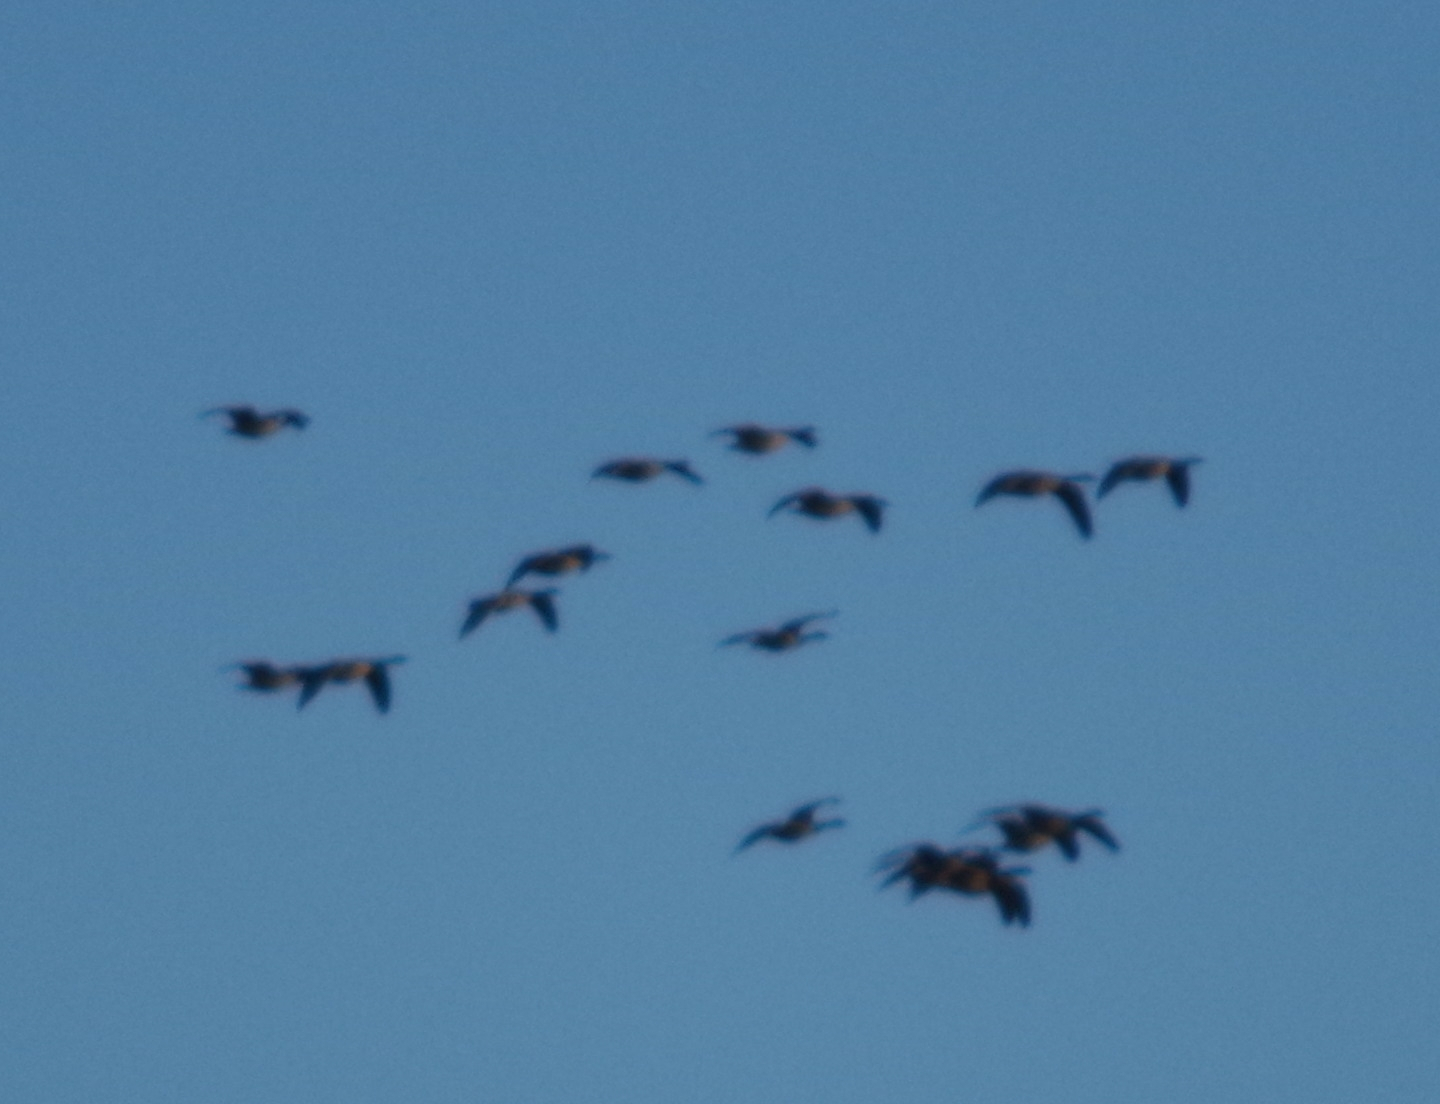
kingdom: Animalia
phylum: Chordata
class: Aves
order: Anseriformes
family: Anatidae
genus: Branta
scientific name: Branta canadensis
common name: Canada goose
